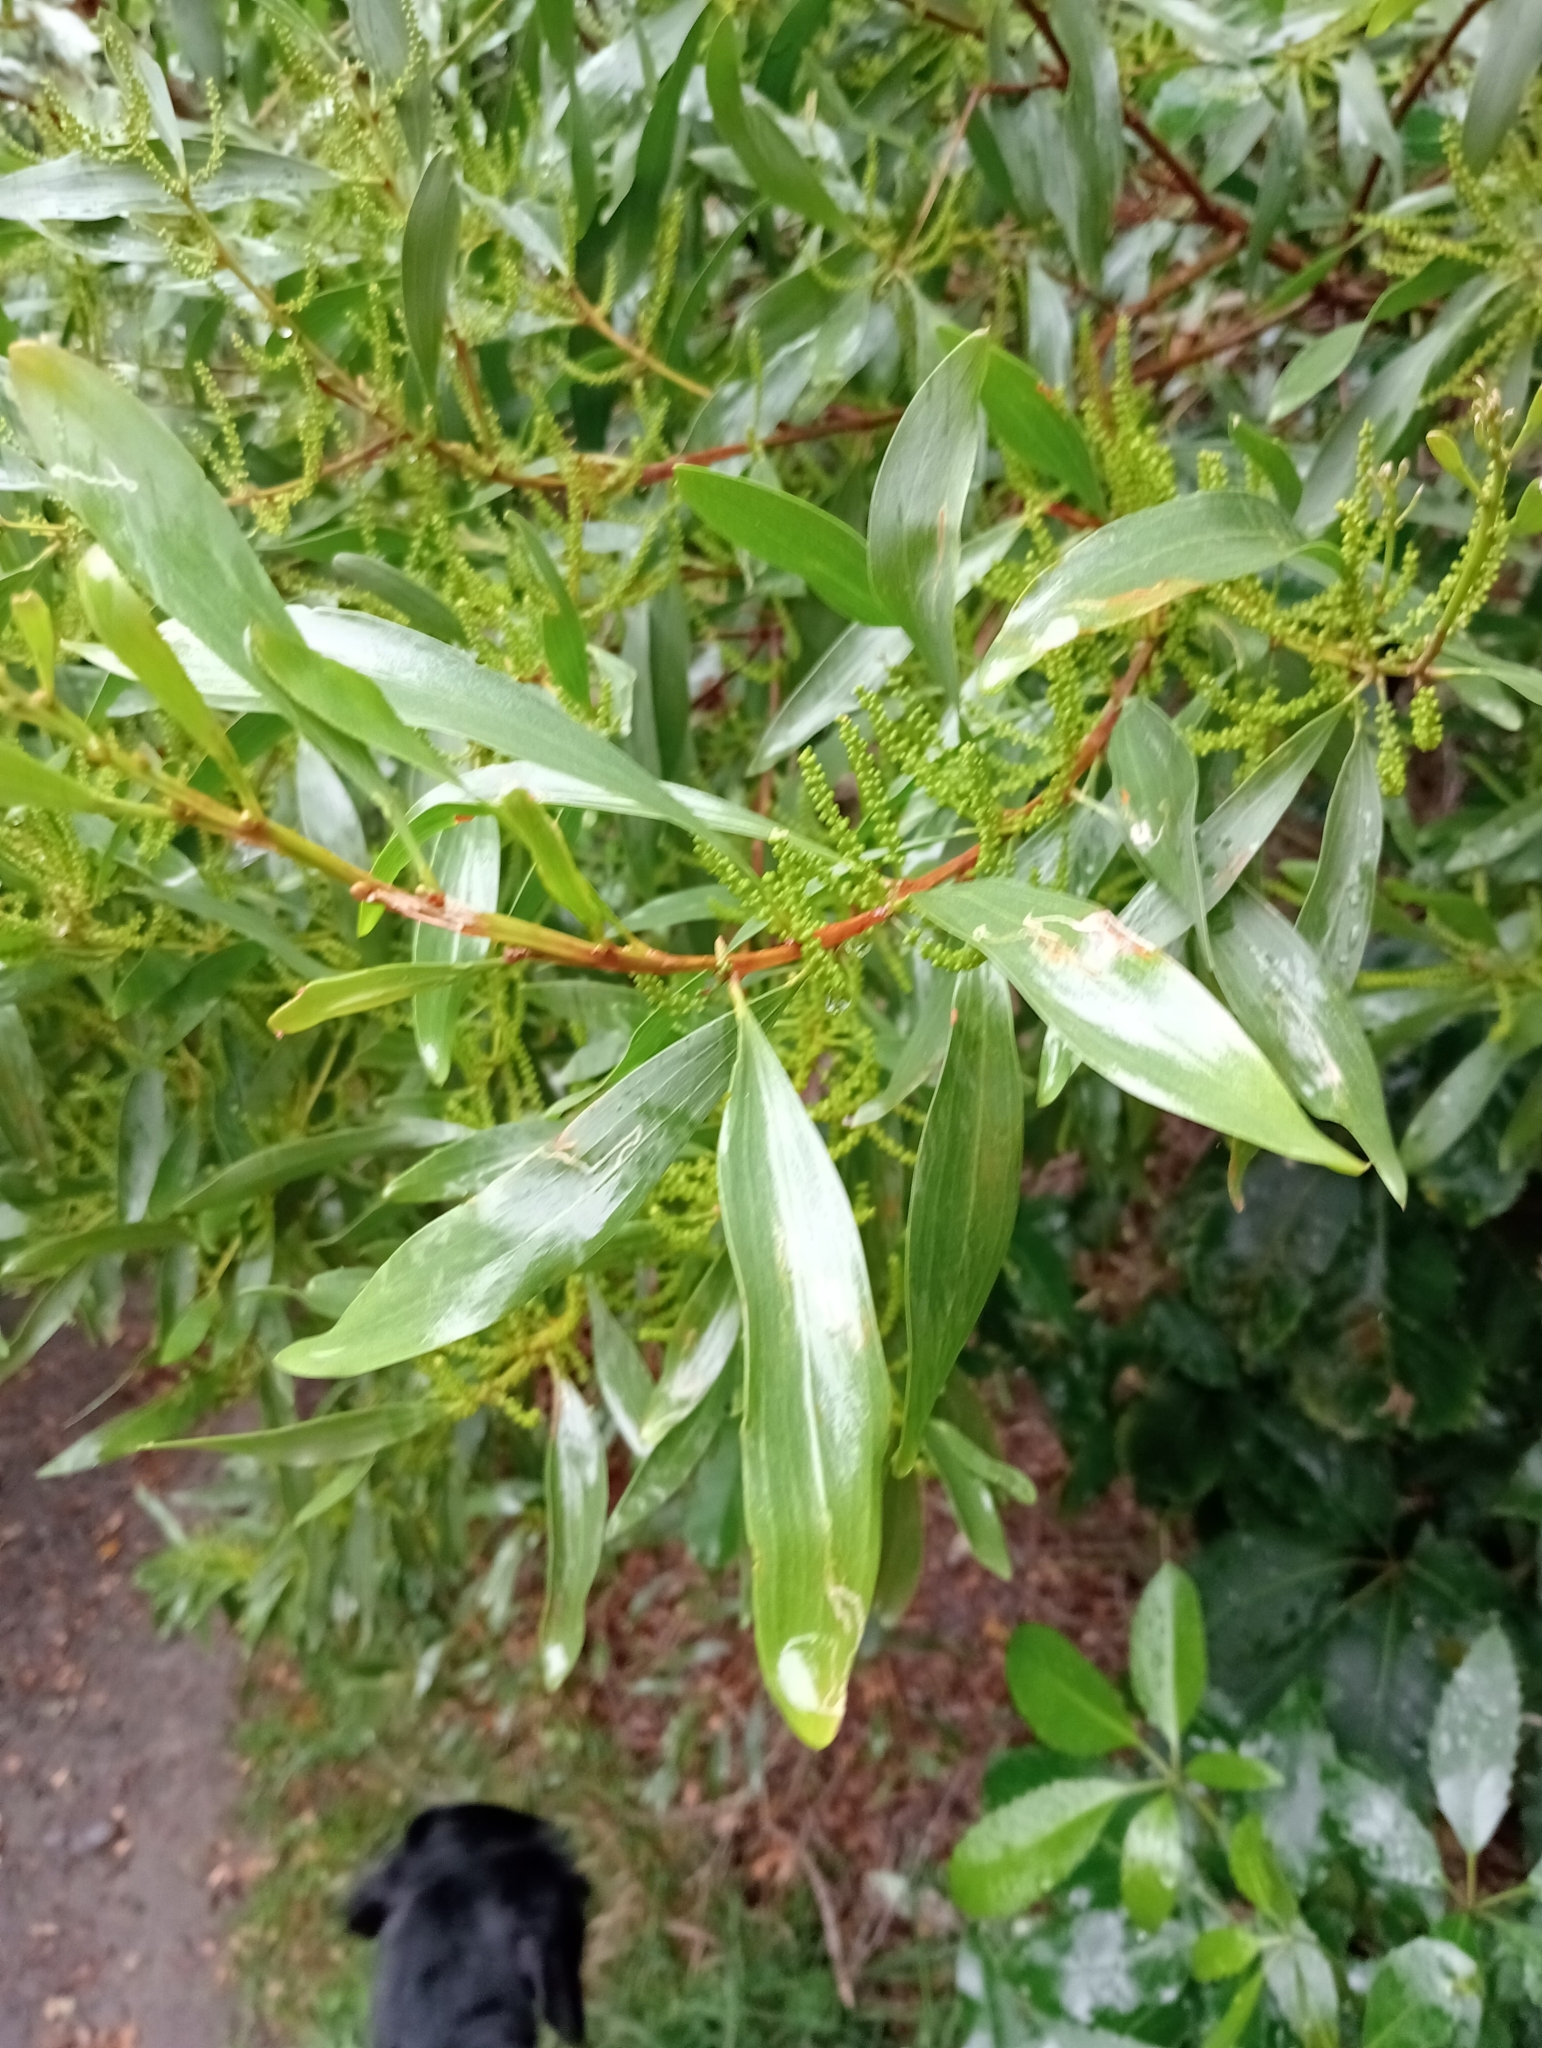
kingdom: Plantae
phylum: Tracheophyta
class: Magnoliopsida
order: Fabales
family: Fabaceae
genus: Acacia
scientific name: Acacia longifolia
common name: Sydney golden wattle
